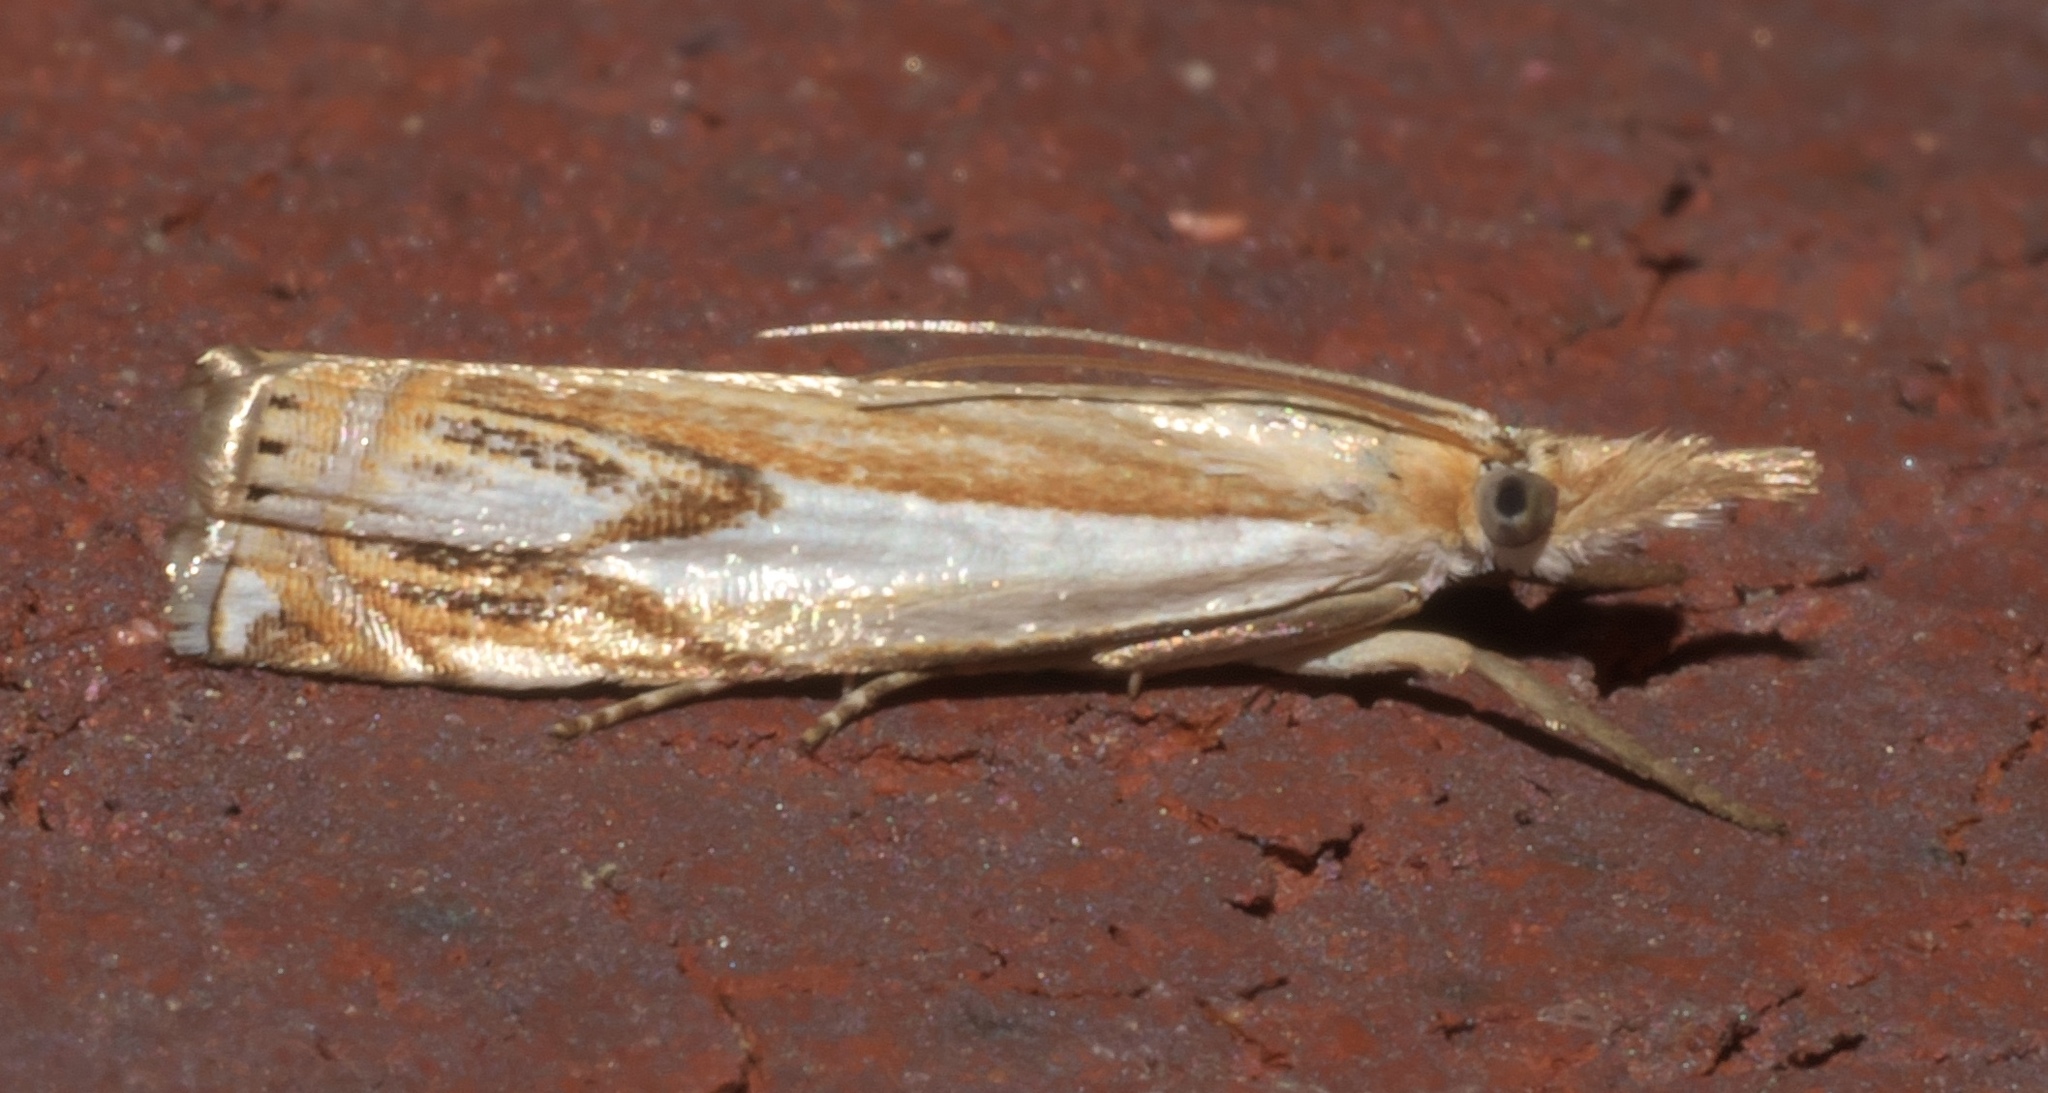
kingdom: Animalia
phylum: Arthropoda
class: Insecta
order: Lepidoptera
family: Crambidae
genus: Crambus
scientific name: Crambus agitatellus
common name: Double-banded grass-veneer
